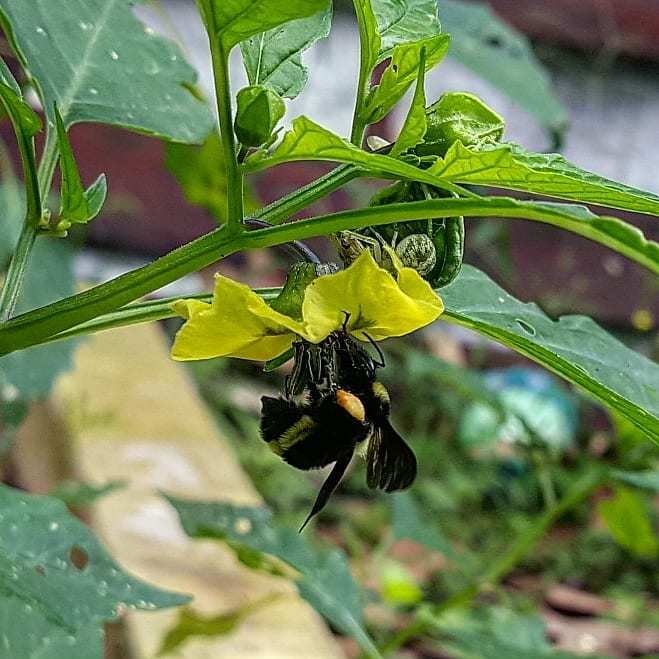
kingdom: Animalia
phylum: Arthropoda
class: Insecta
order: Hymenoptera
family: Apidae
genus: Bombus
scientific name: Bombus medius
